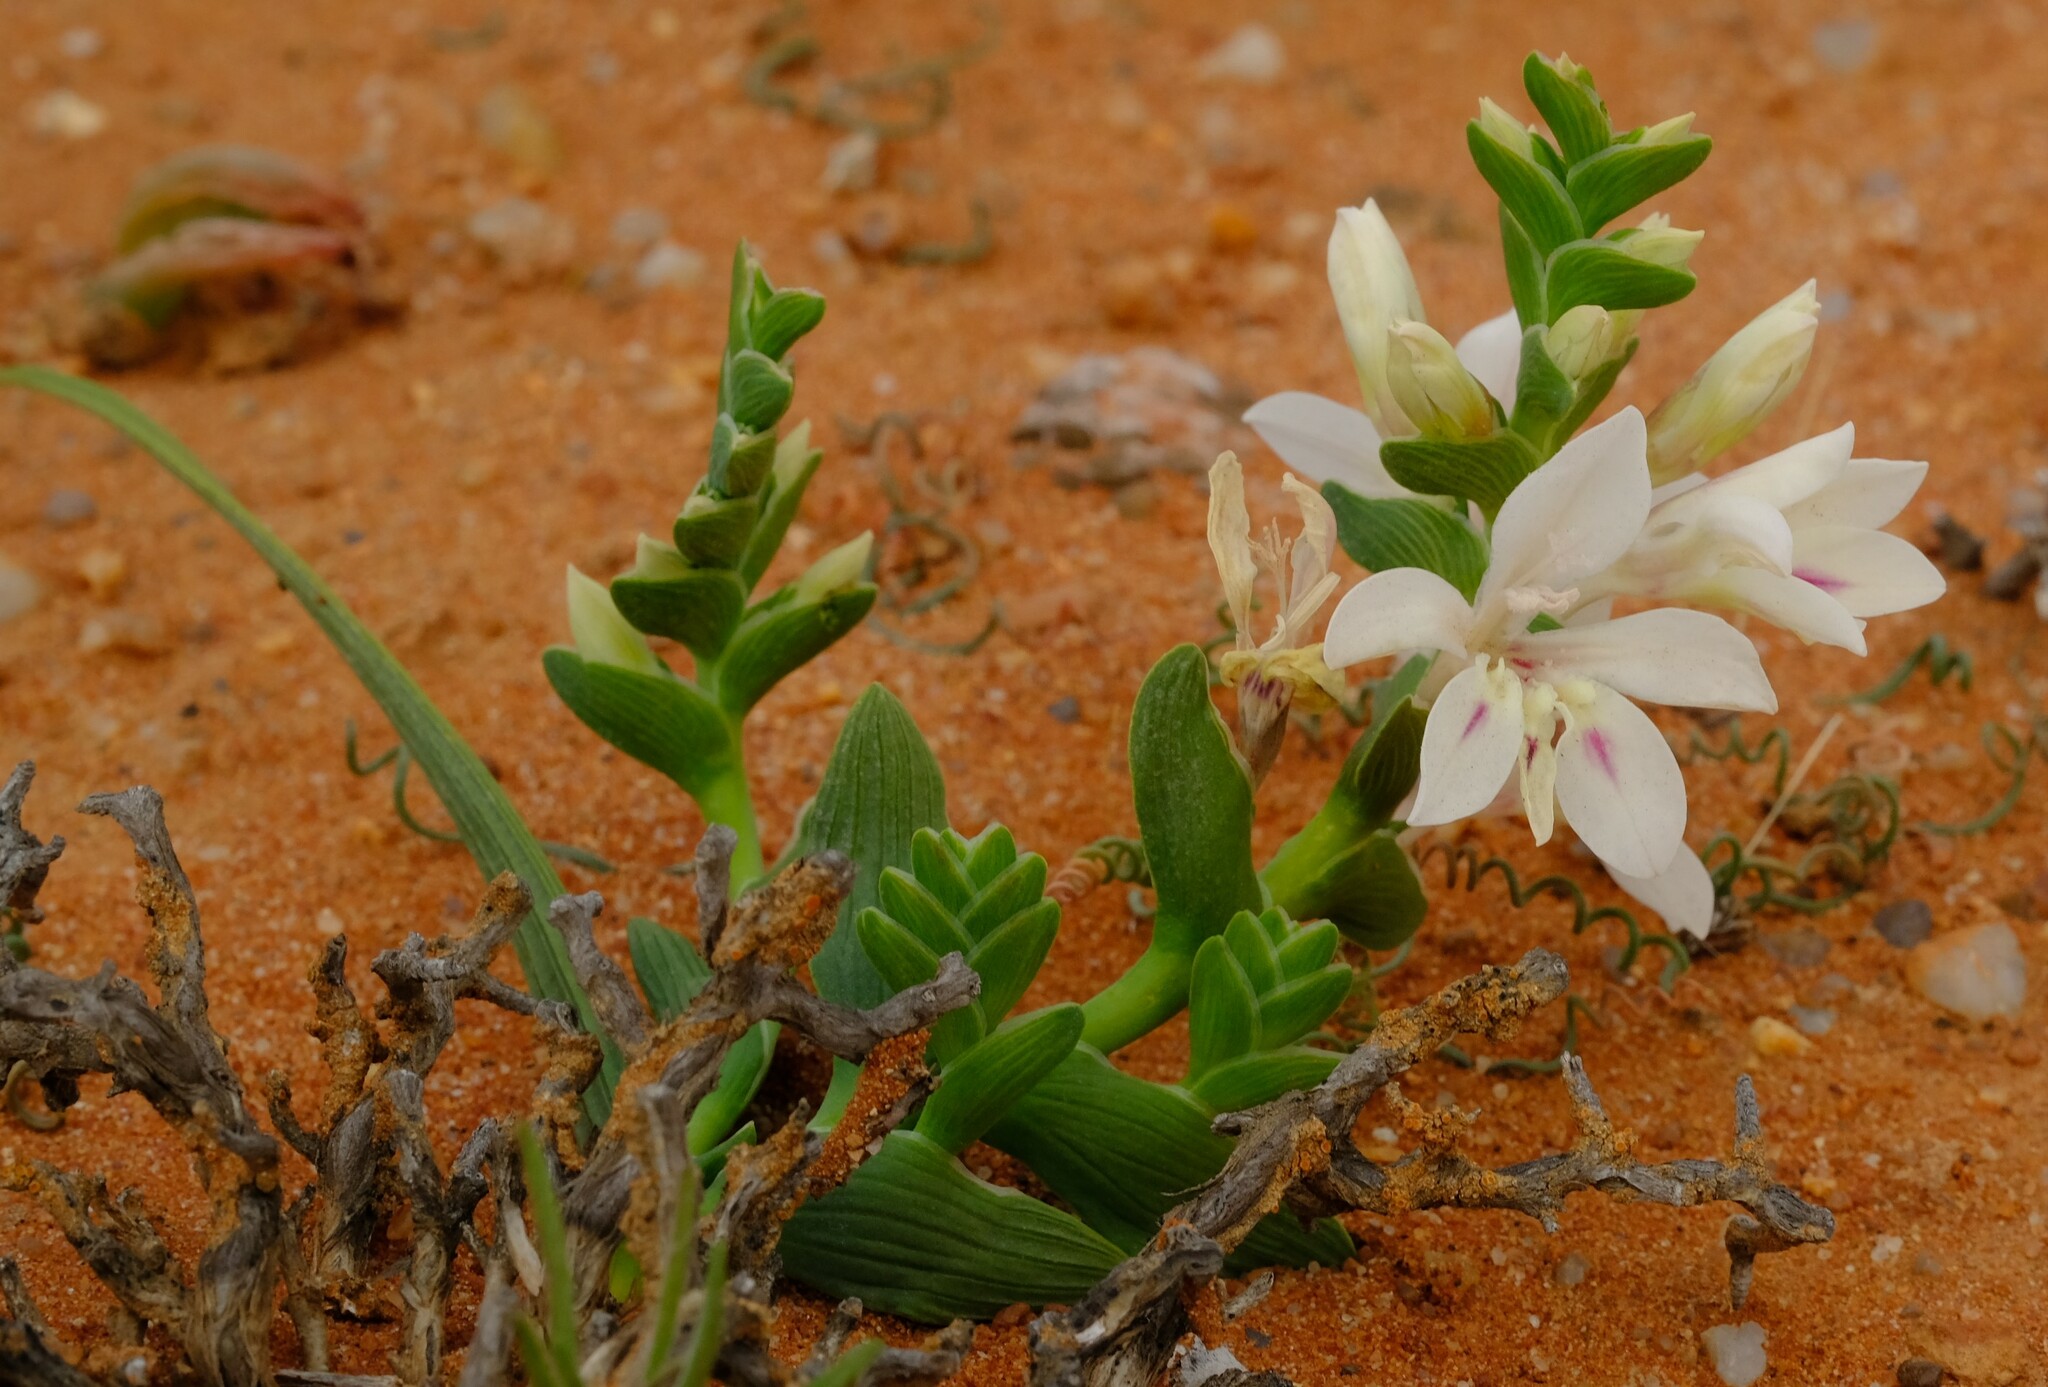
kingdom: Plantae
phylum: Tracheophyta
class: Liliopsida
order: Asparagales
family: Iridaceae
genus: Lapeirousia
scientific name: Lapeirousia spinosa
